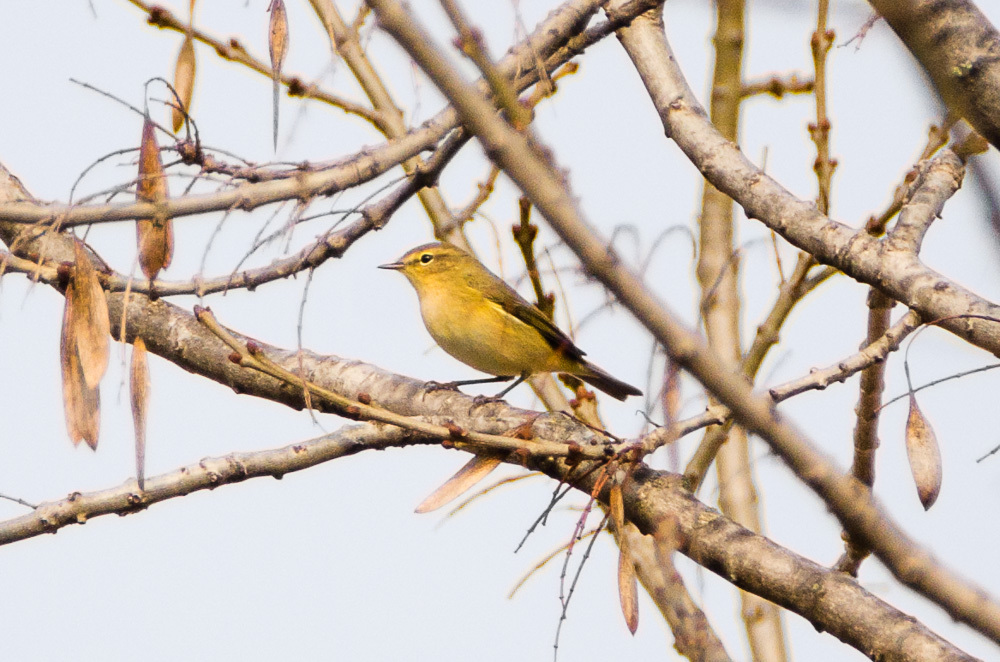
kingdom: Animalia
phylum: Chordata
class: Aves
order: Passeriformes
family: Phylloscopidae
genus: Phylloscopus
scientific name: Phylloscopus collybita
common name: Common chiffchaff
